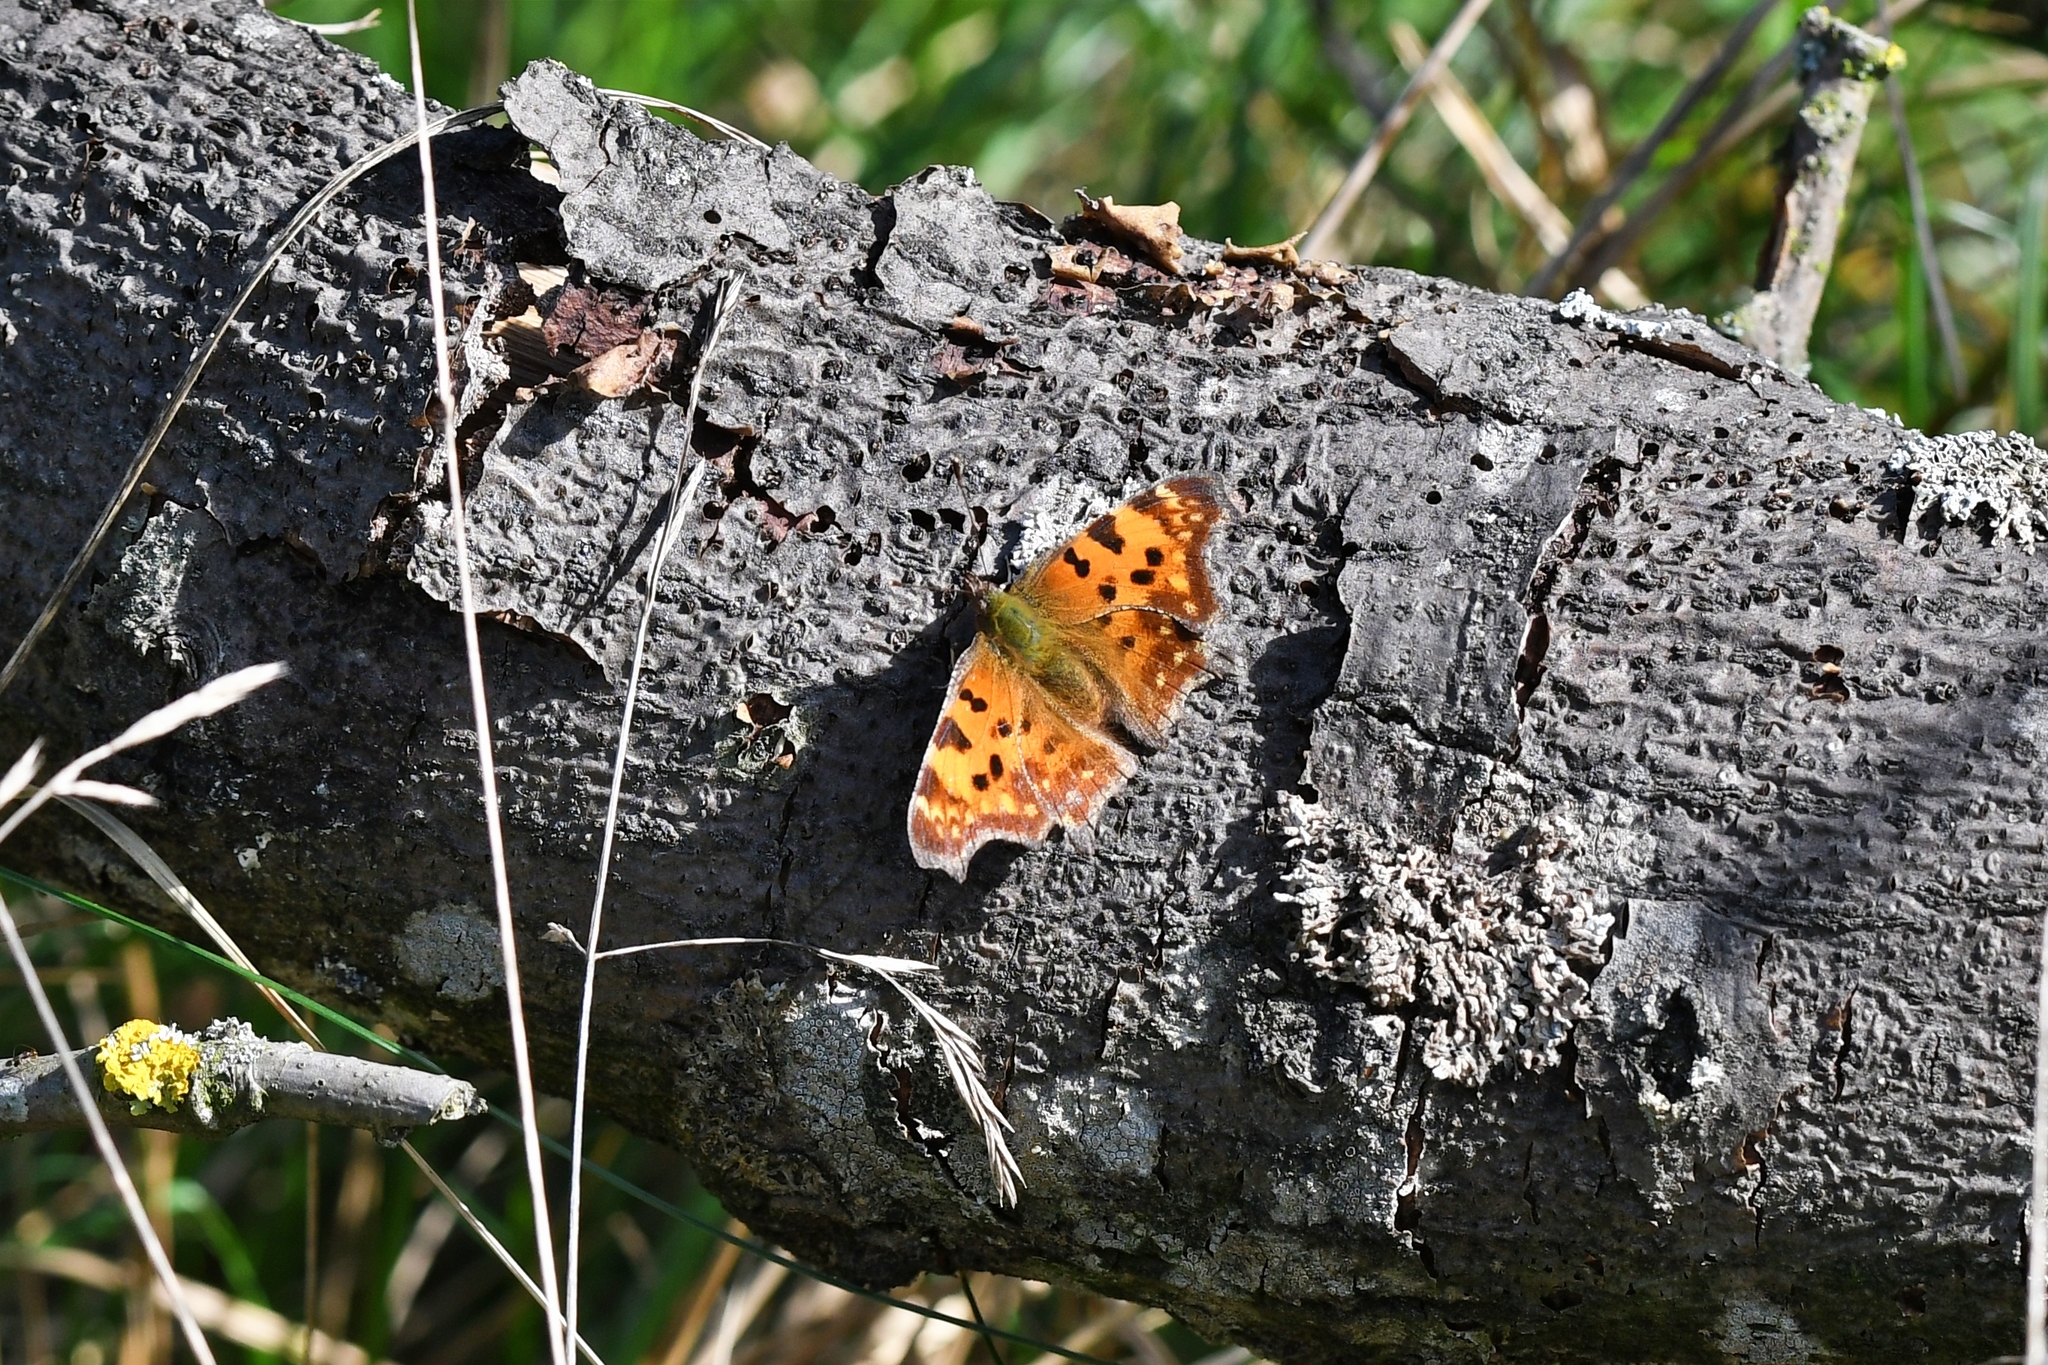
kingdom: Animalia
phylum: Arthropoda
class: Insecta
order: Lepidoptera
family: Nymphalidae
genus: Polygonia
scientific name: Polygonia c-album
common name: Comma
